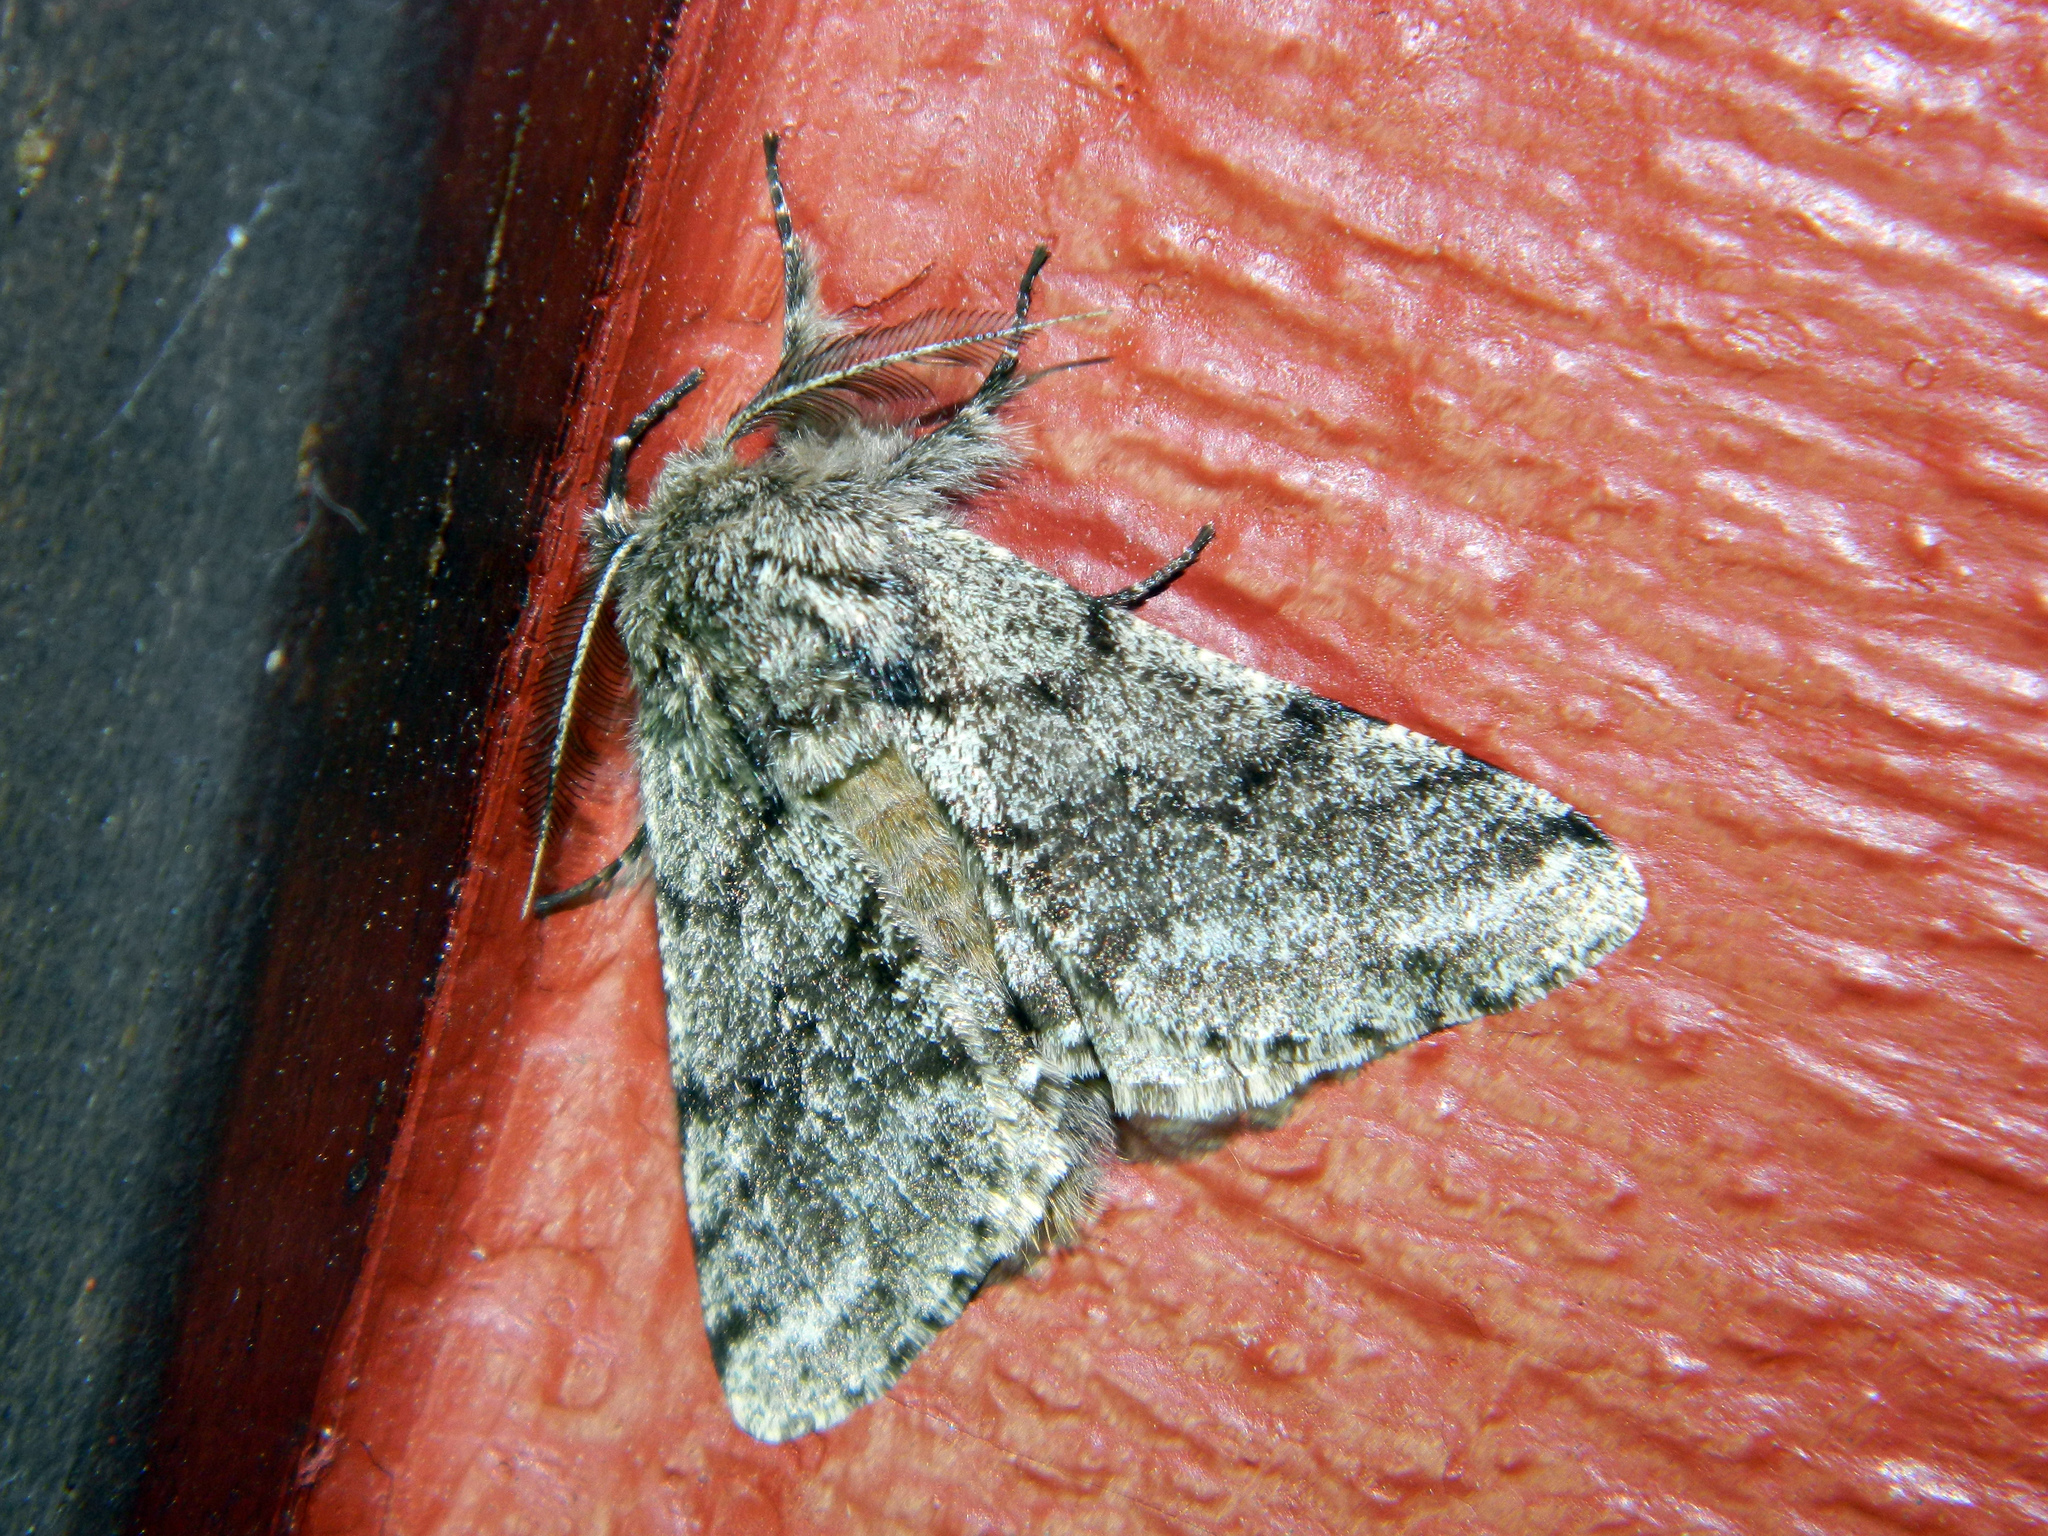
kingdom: Animalia
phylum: Arthropoda
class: Insecta
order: Lepidoptera
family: Geometridae
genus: Lycia
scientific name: Lycia ursaria
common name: Stout spanworm
